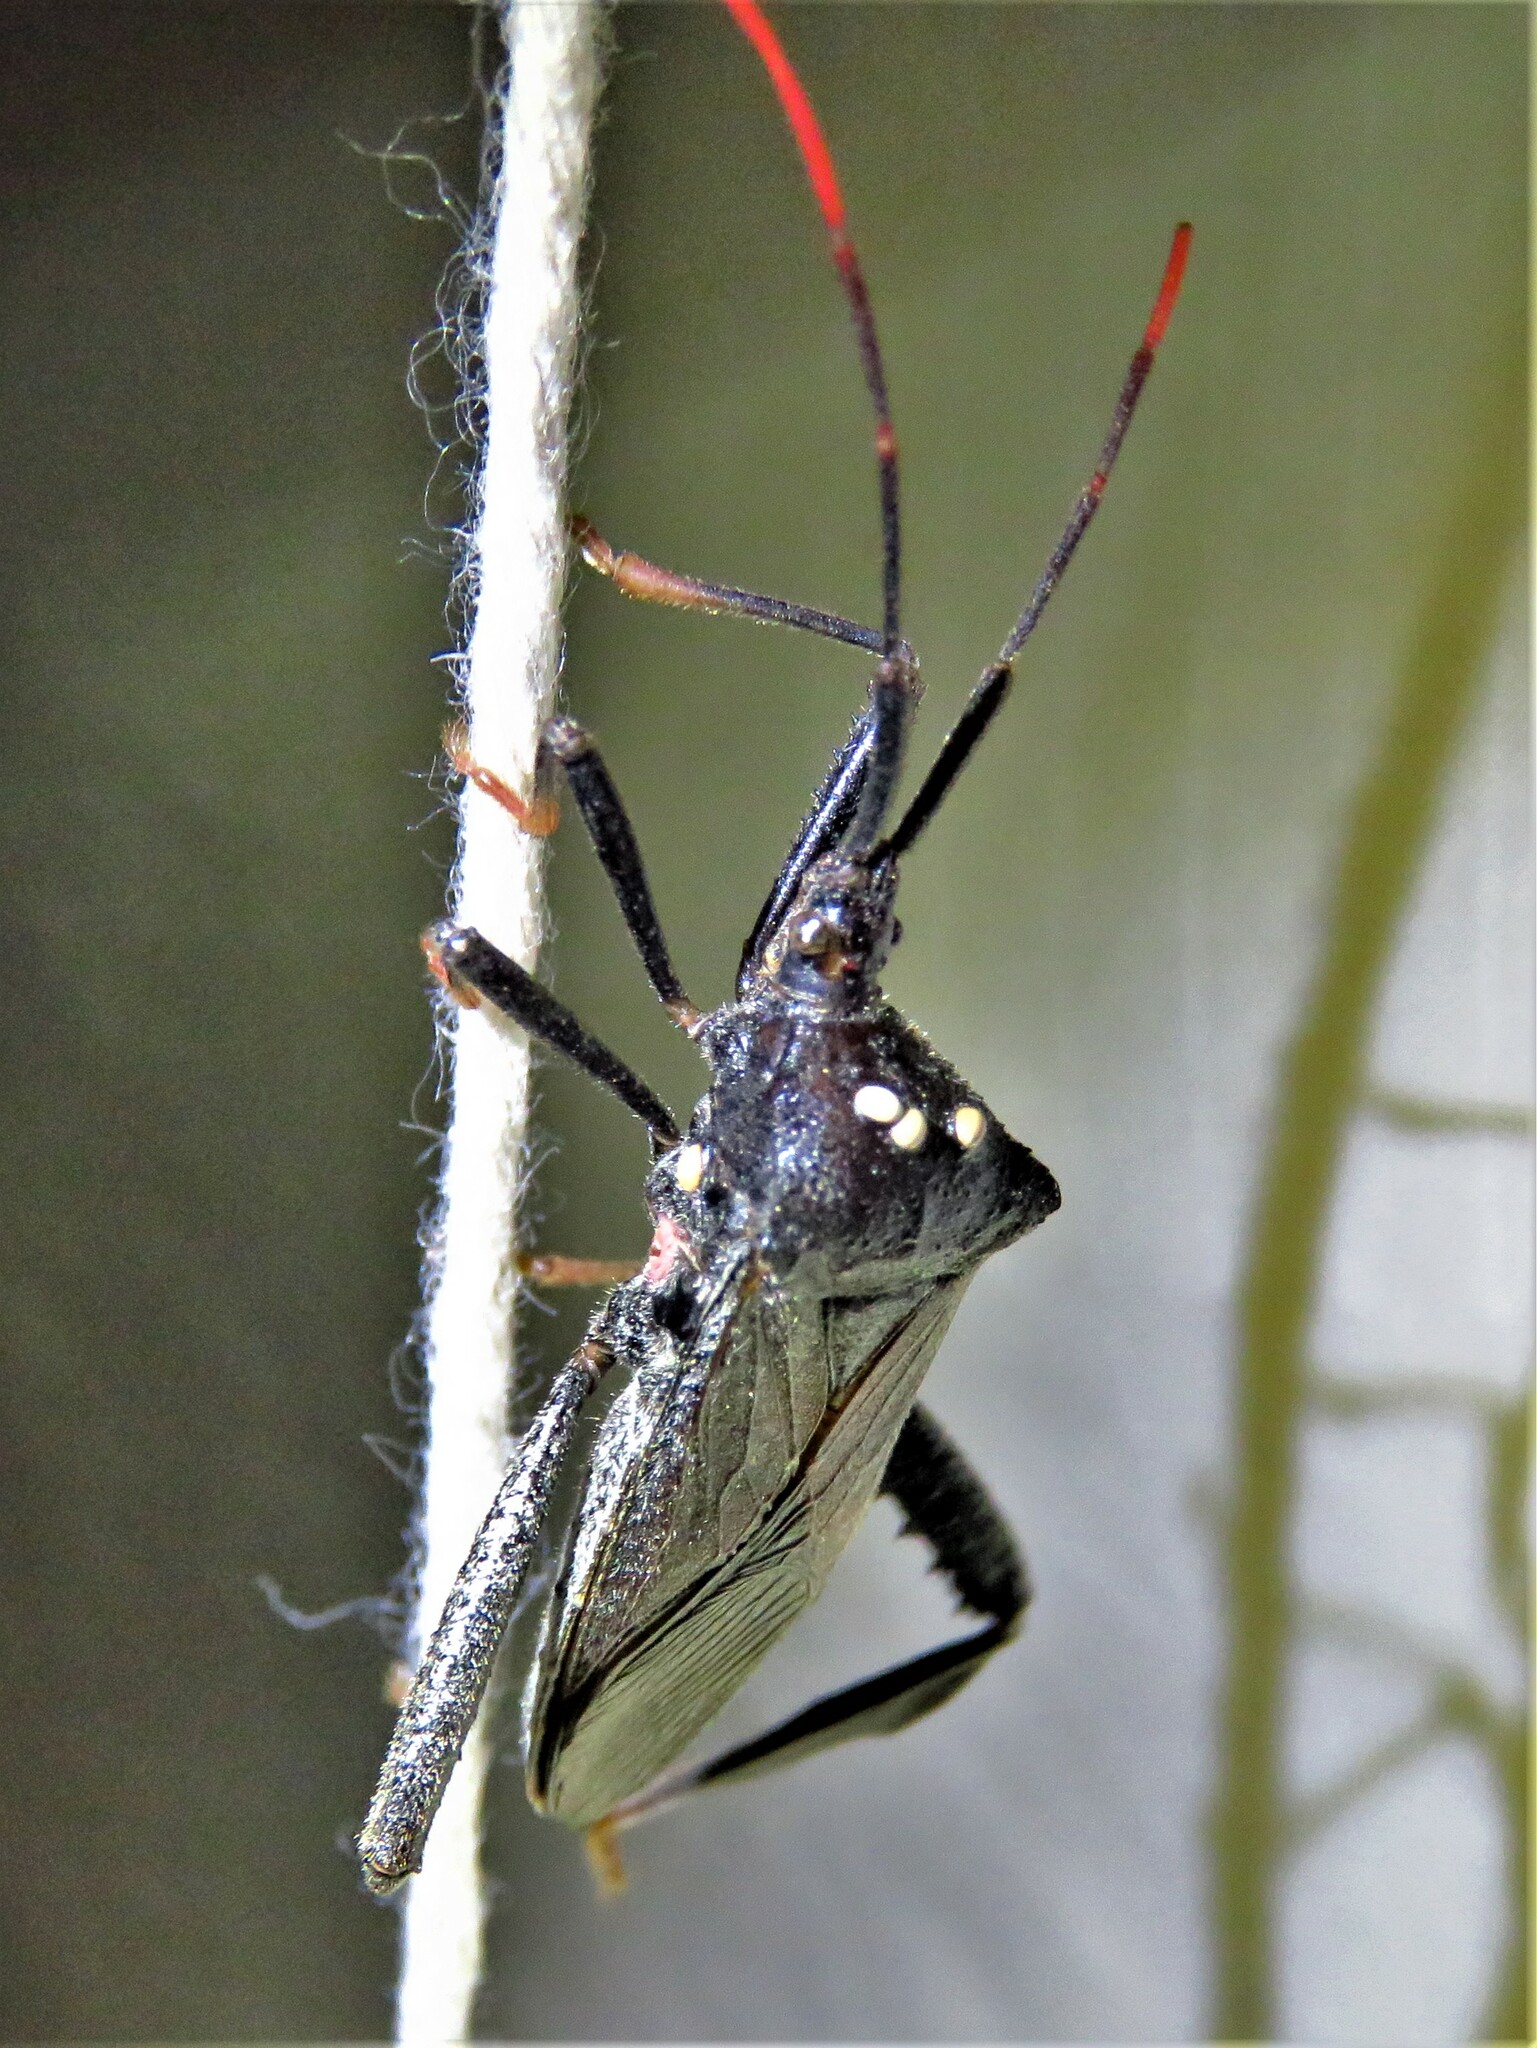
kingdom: Animalia
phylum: Arthropoda
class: Insecta
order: Hemiptera
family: Coreidae
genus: Acanthocephala
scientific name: Acanthocephala terminalis
